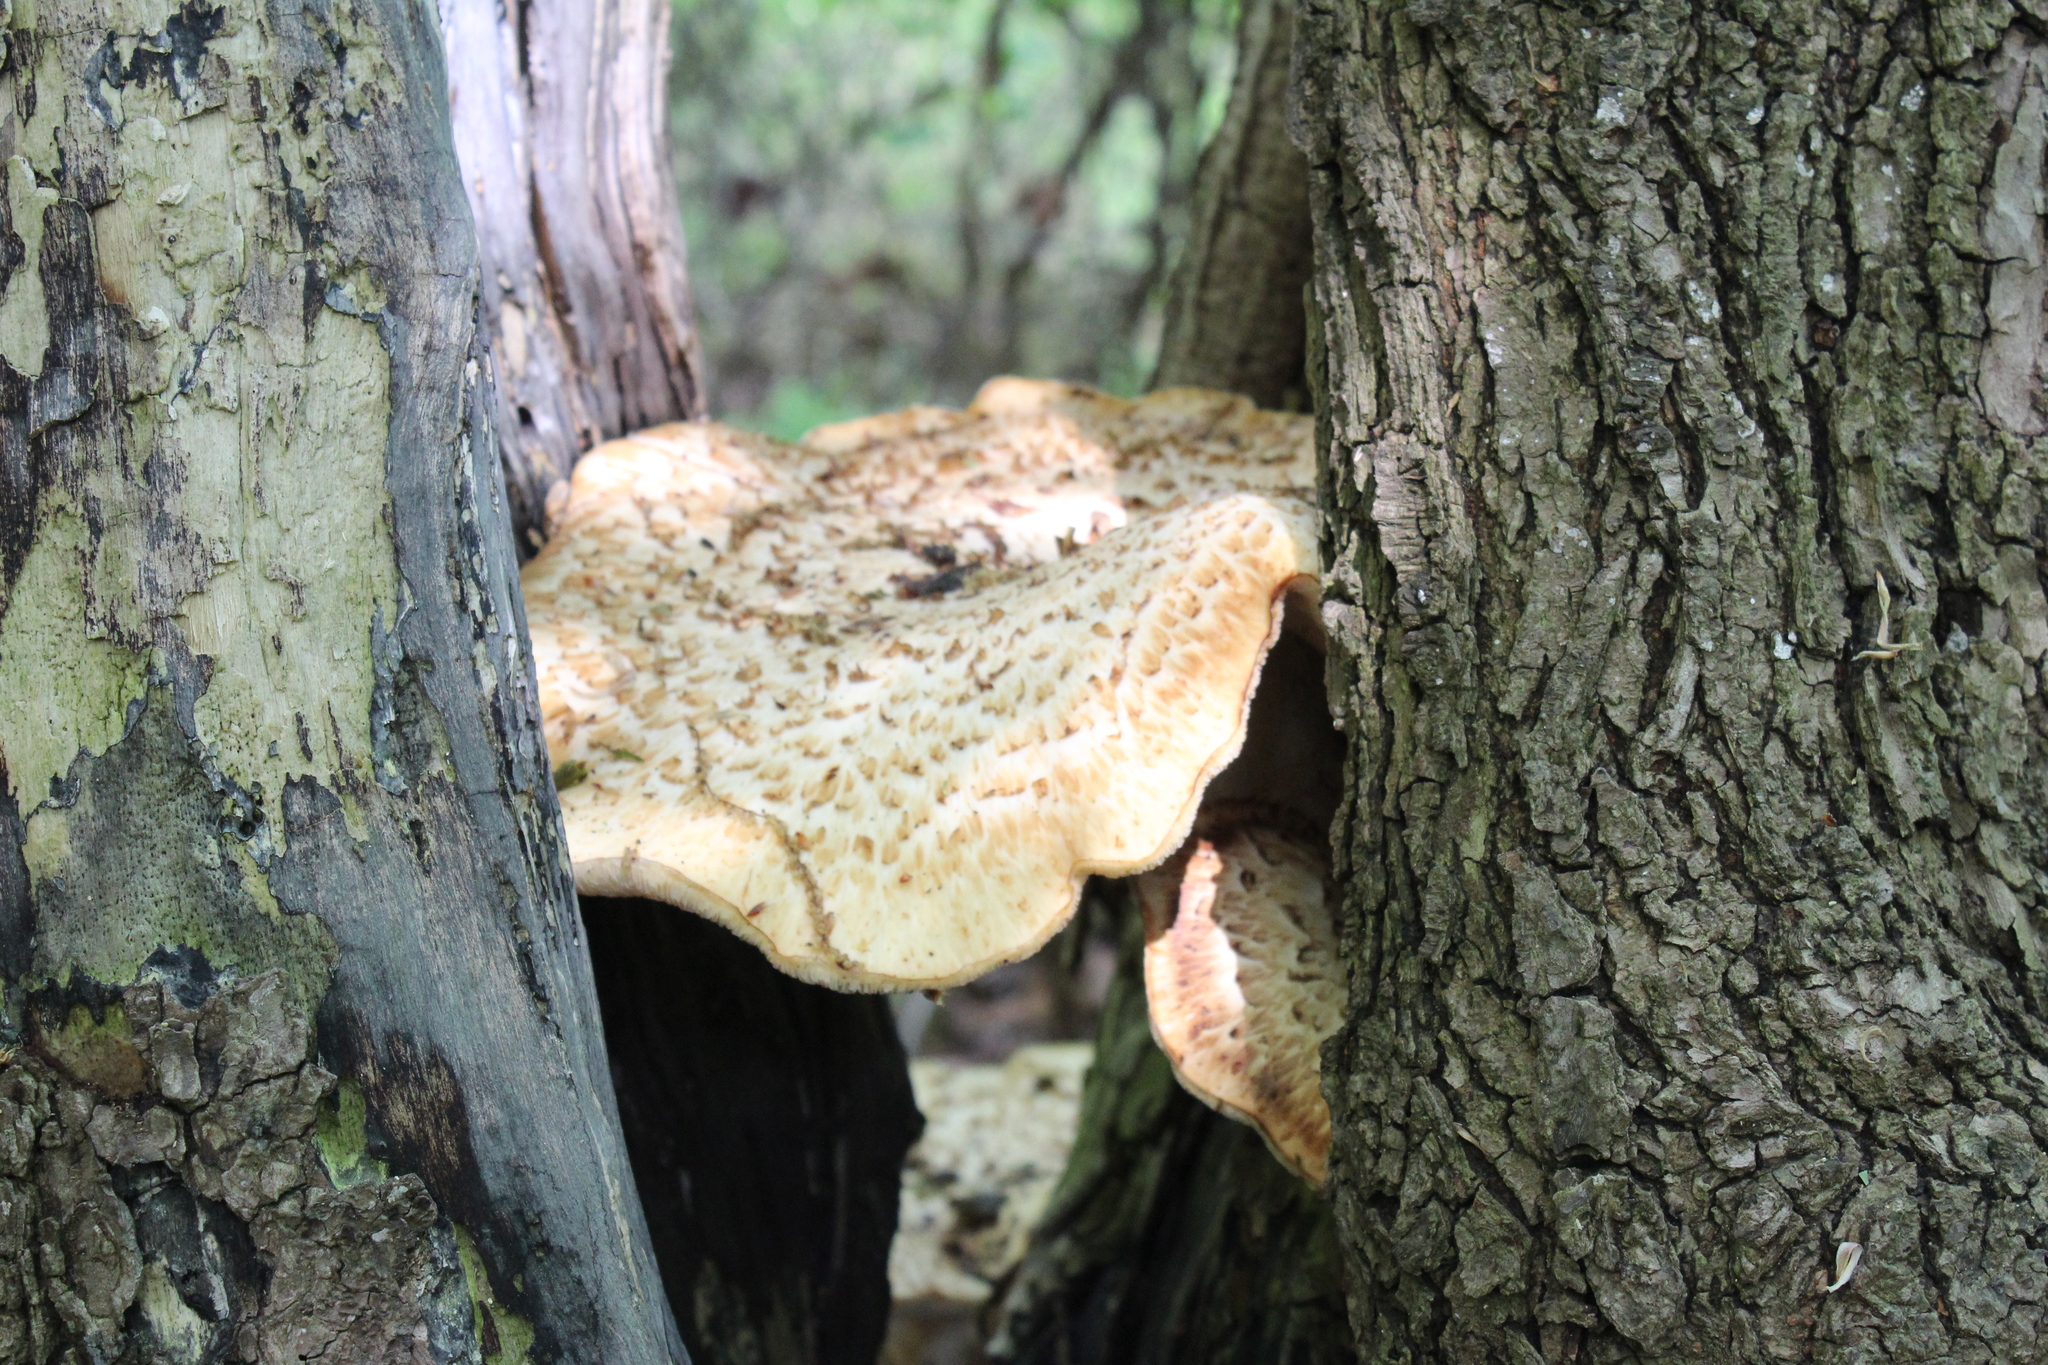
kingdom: Fungi
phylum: Basidiomycota
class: Agaricomycetes
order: Polyporales
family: Polyporaceae
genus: Cerioporus
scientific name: Cerioporus squamosus
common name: Dryad's saddle
